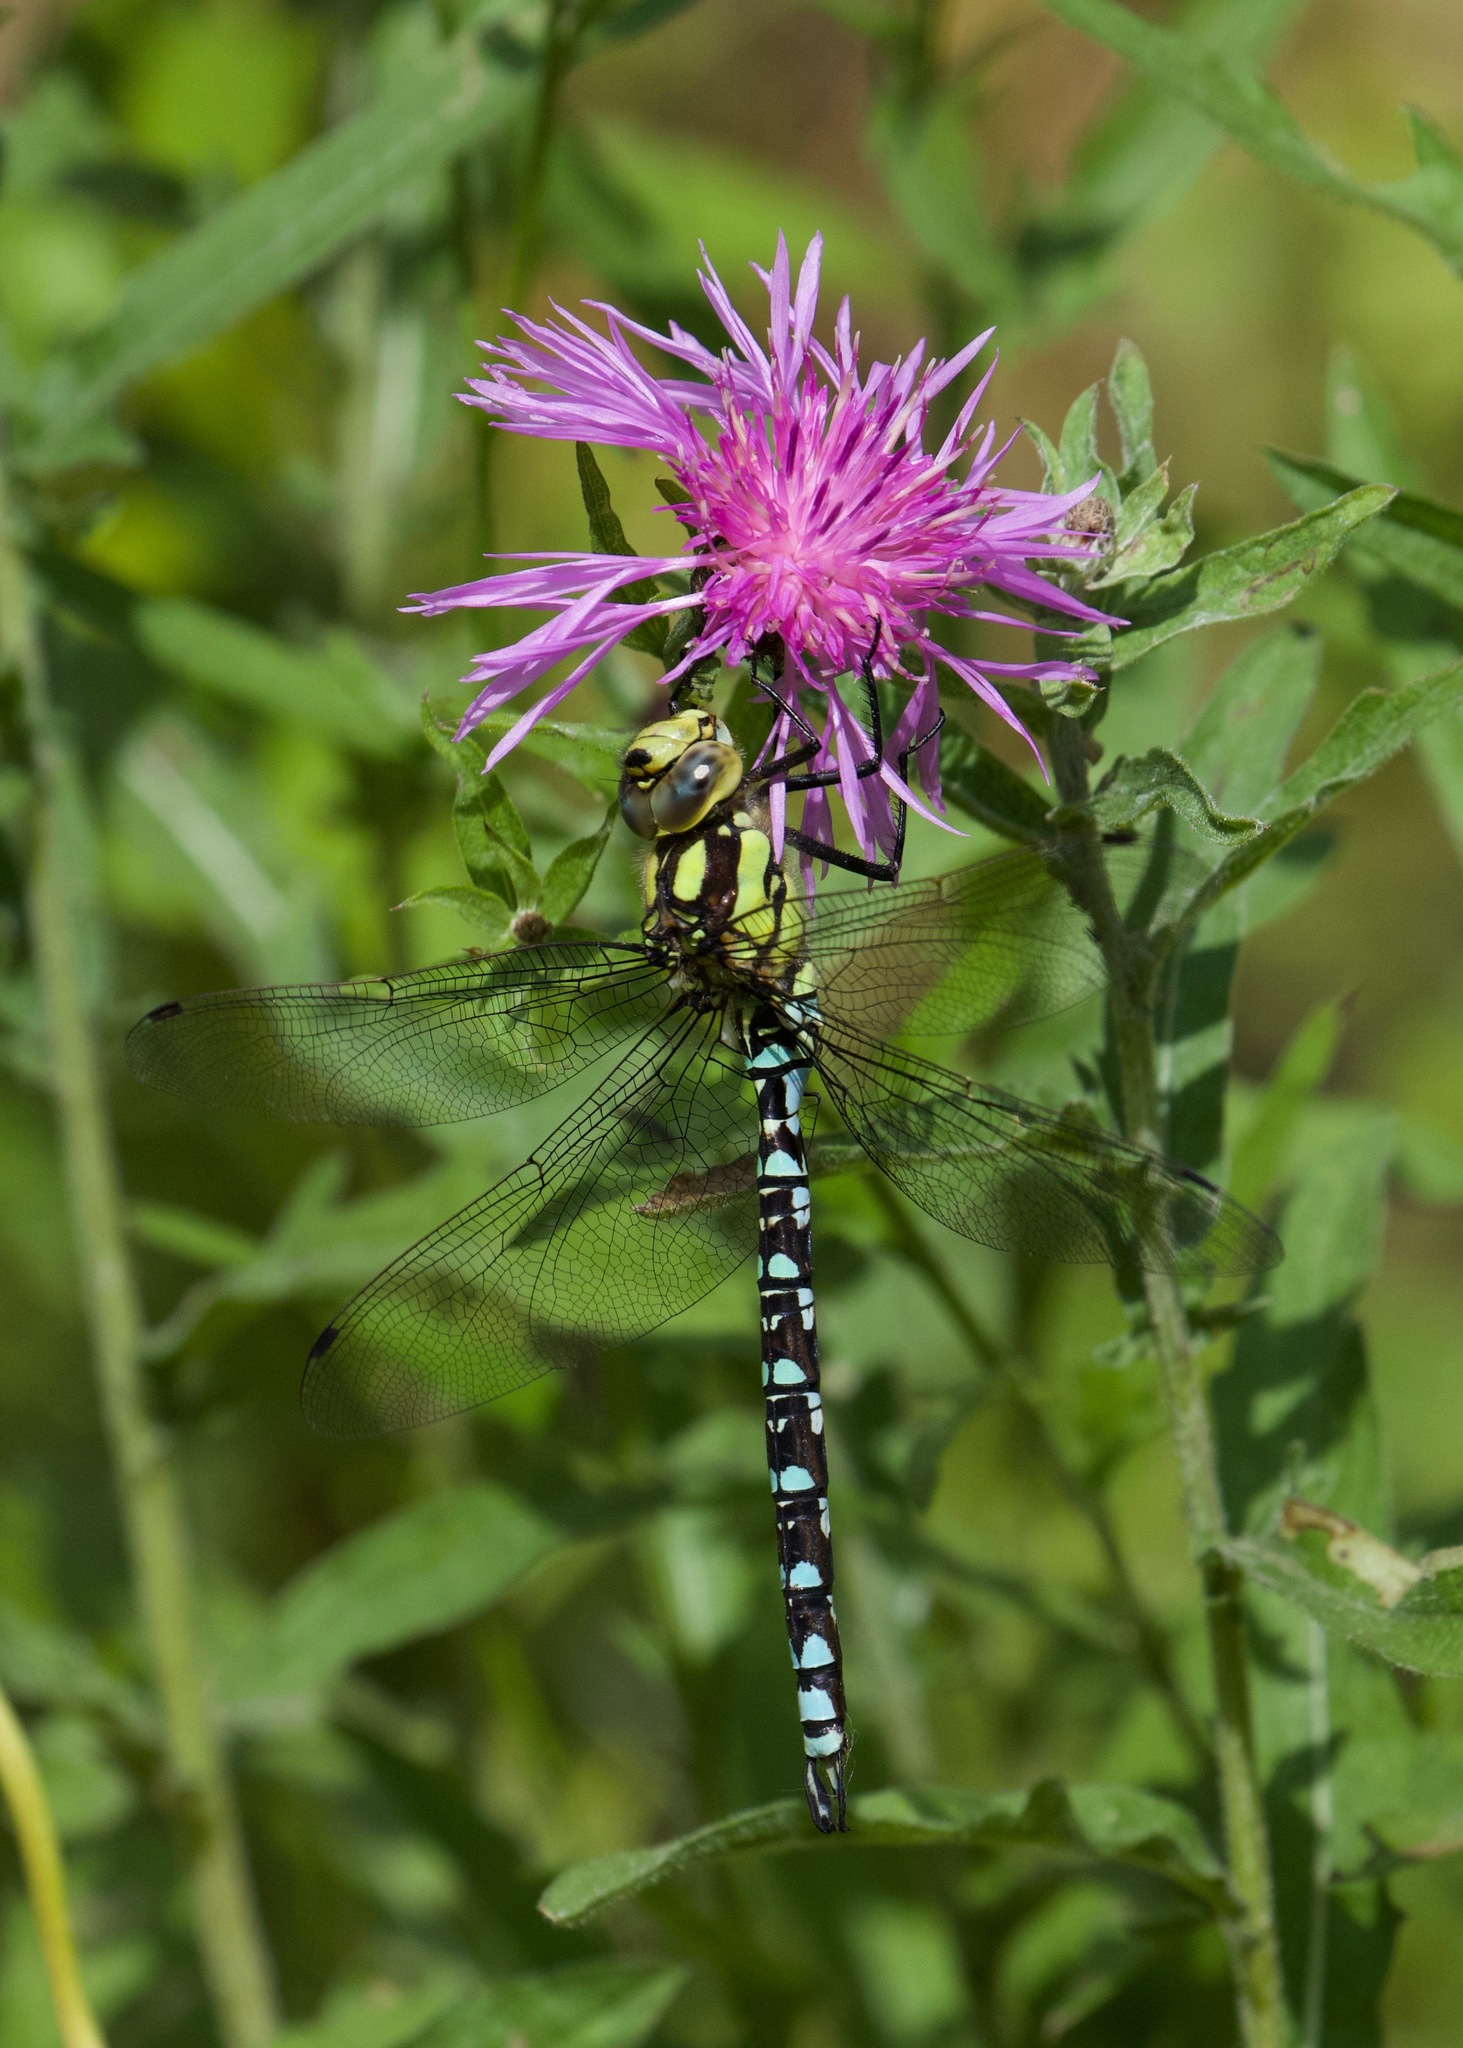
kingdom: Animalia
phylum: Arthropoda
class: Insecta
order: Odonata
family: Aeshnidae
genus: Aeshna
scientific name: Aeshna cyanea
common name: Southern hawker
